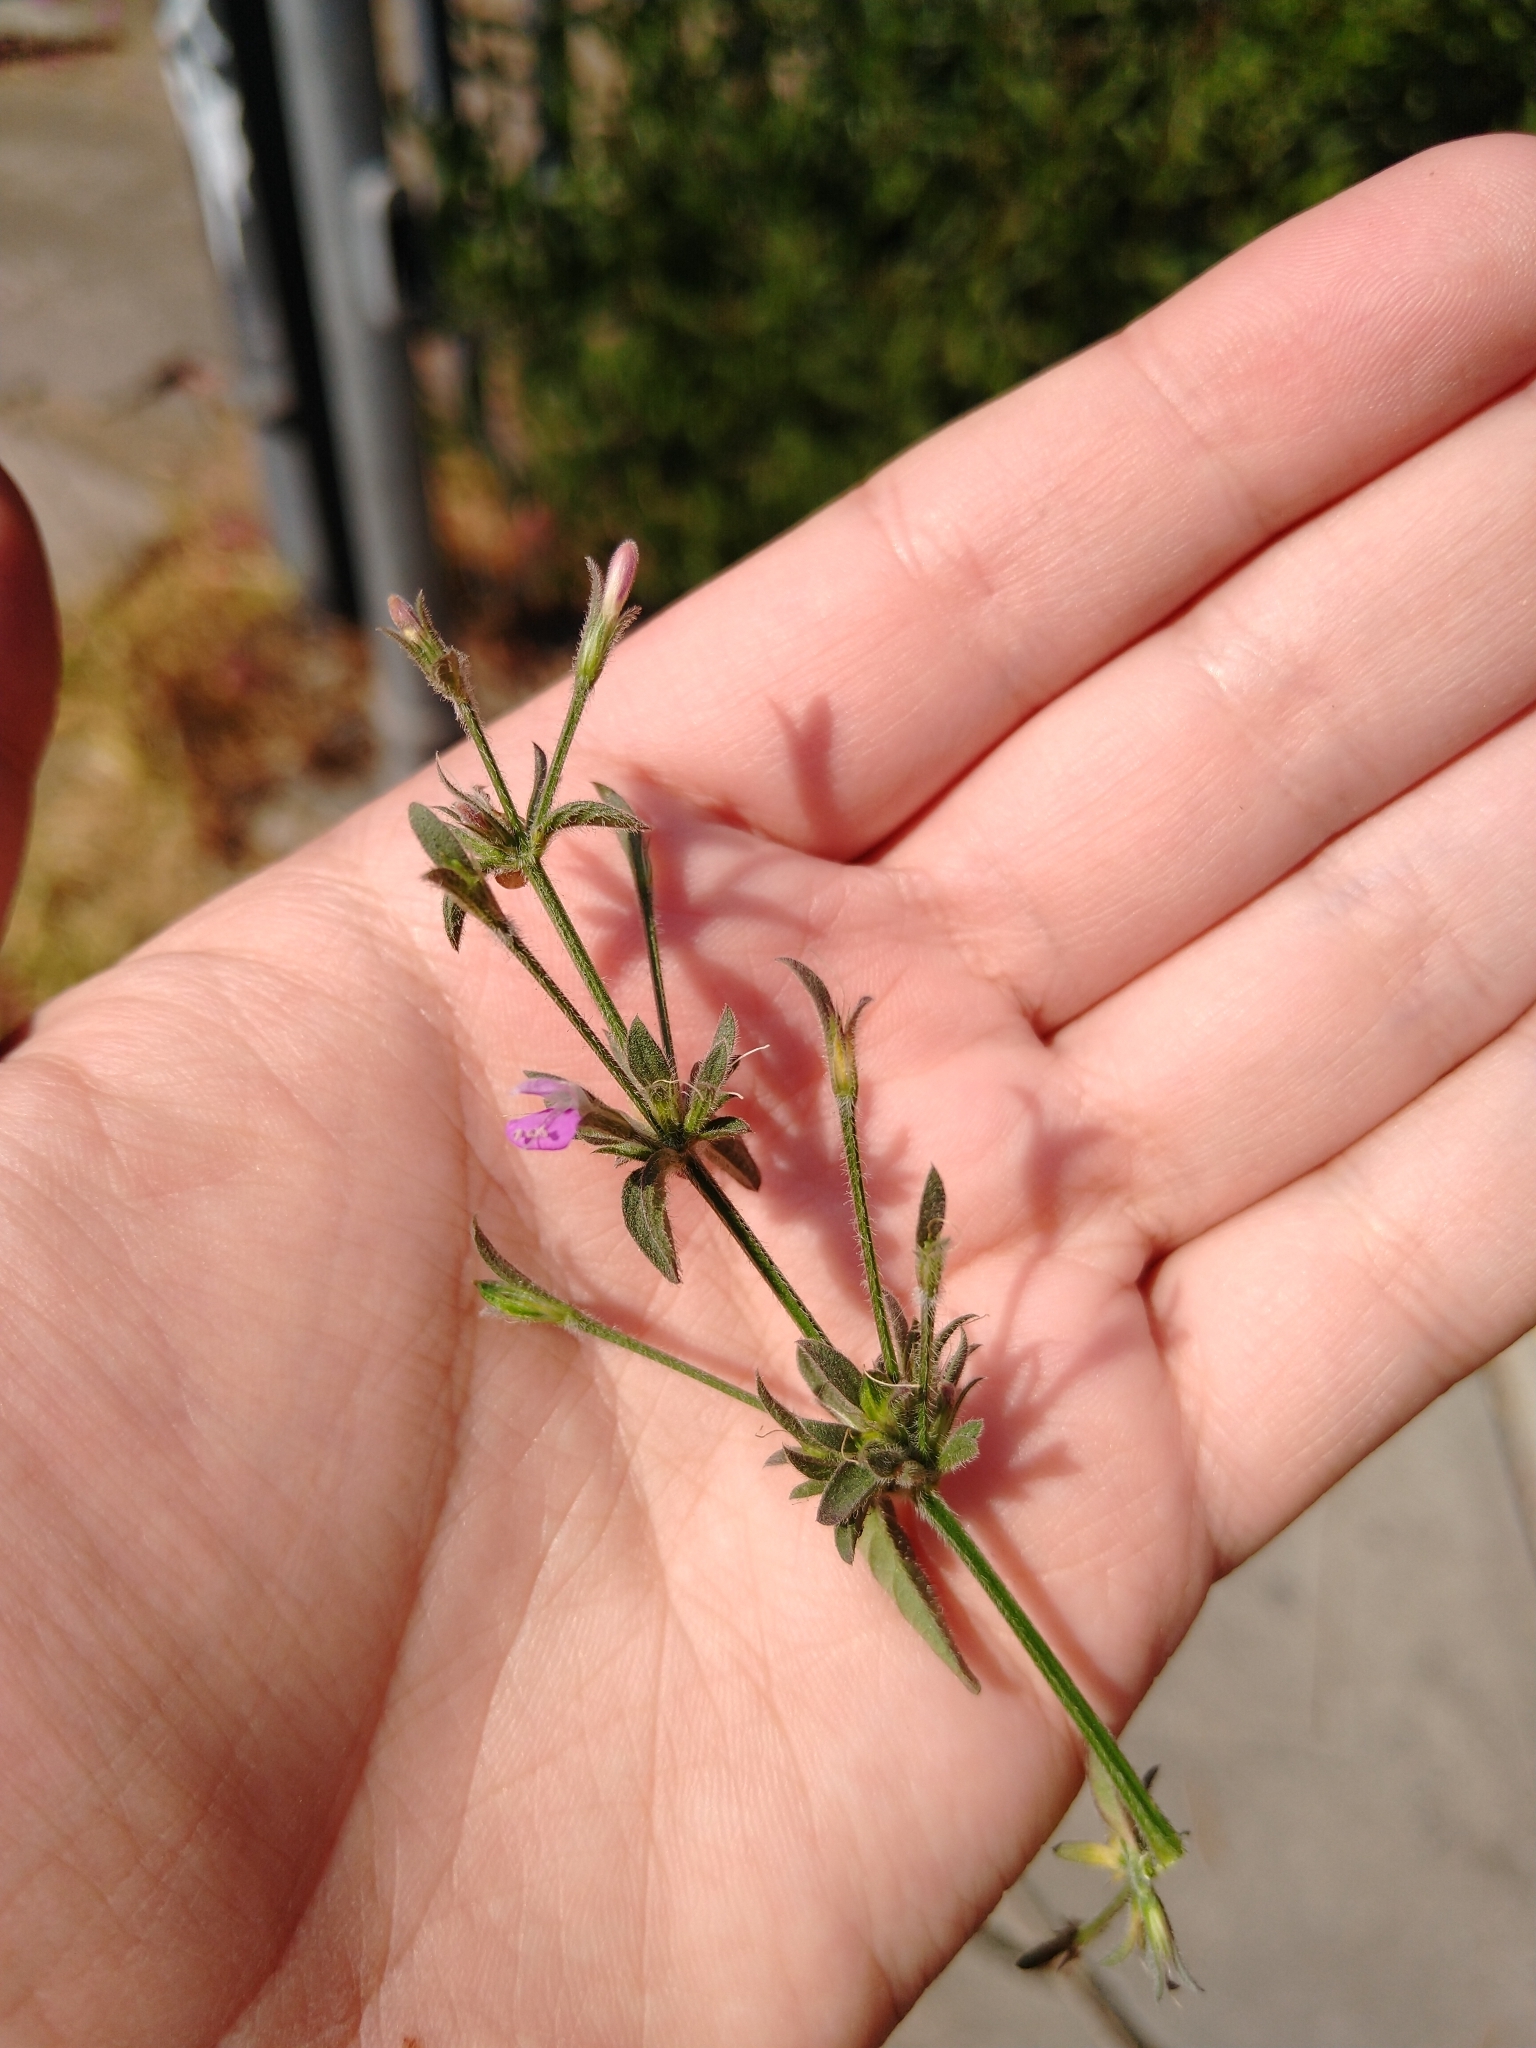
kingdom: Plantae
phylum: Tracheophyta
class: Magnoliopsida
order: Lamiales
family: Acanthaceae
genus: Dicliptera
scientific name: Dicliptera peduncularis
